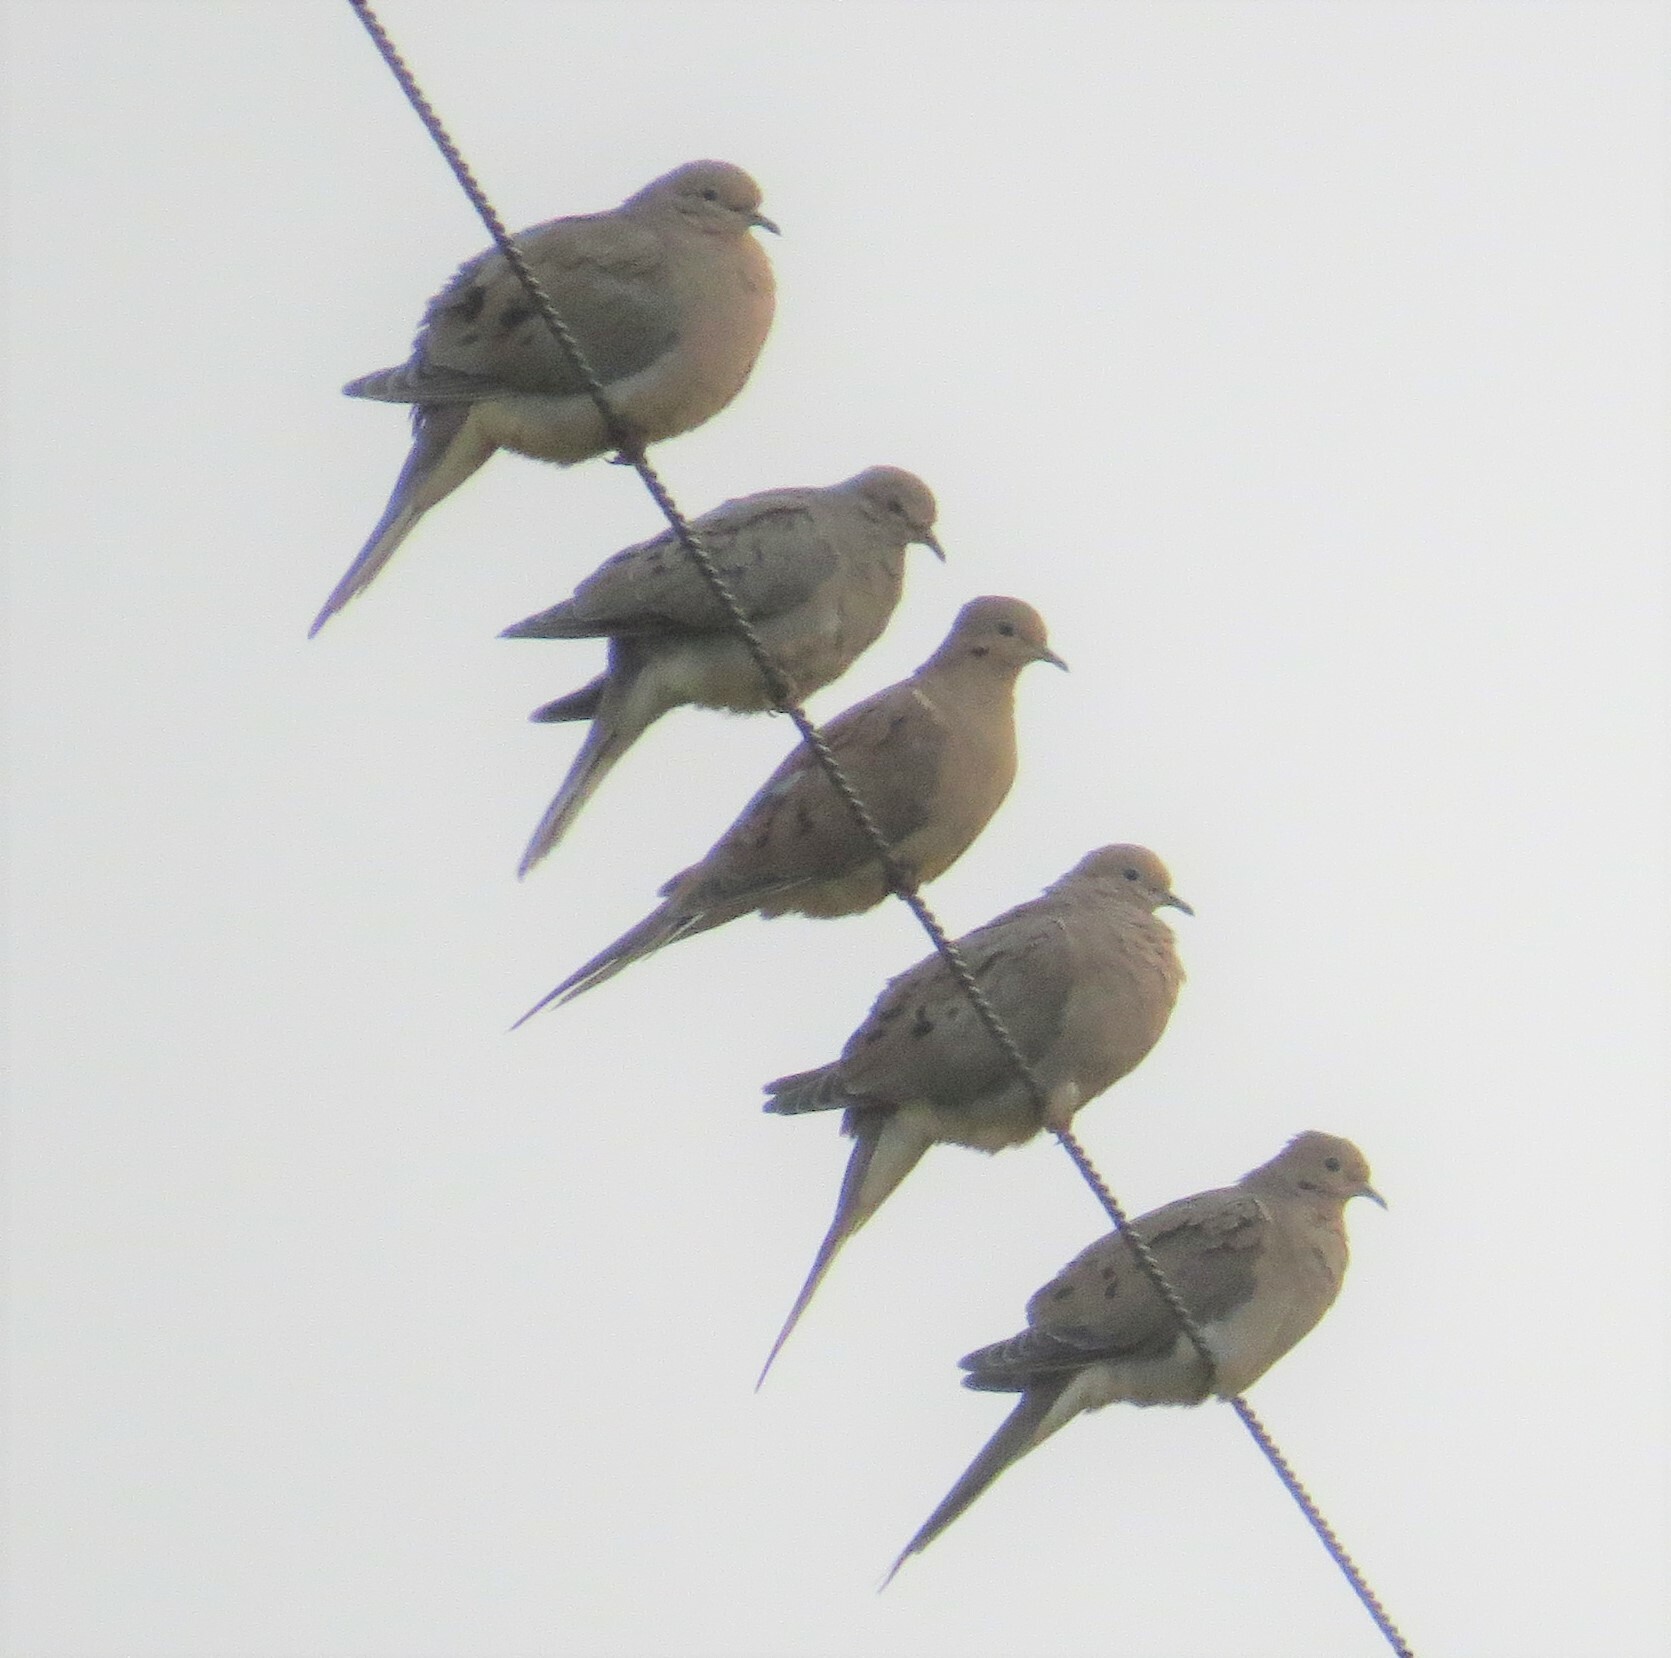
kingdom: Animalia
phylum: Chordata
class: Aves
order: Columbiformes
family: Columbidae
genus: Zenaida
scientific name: Zenaida macroura
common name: Mourning dove
